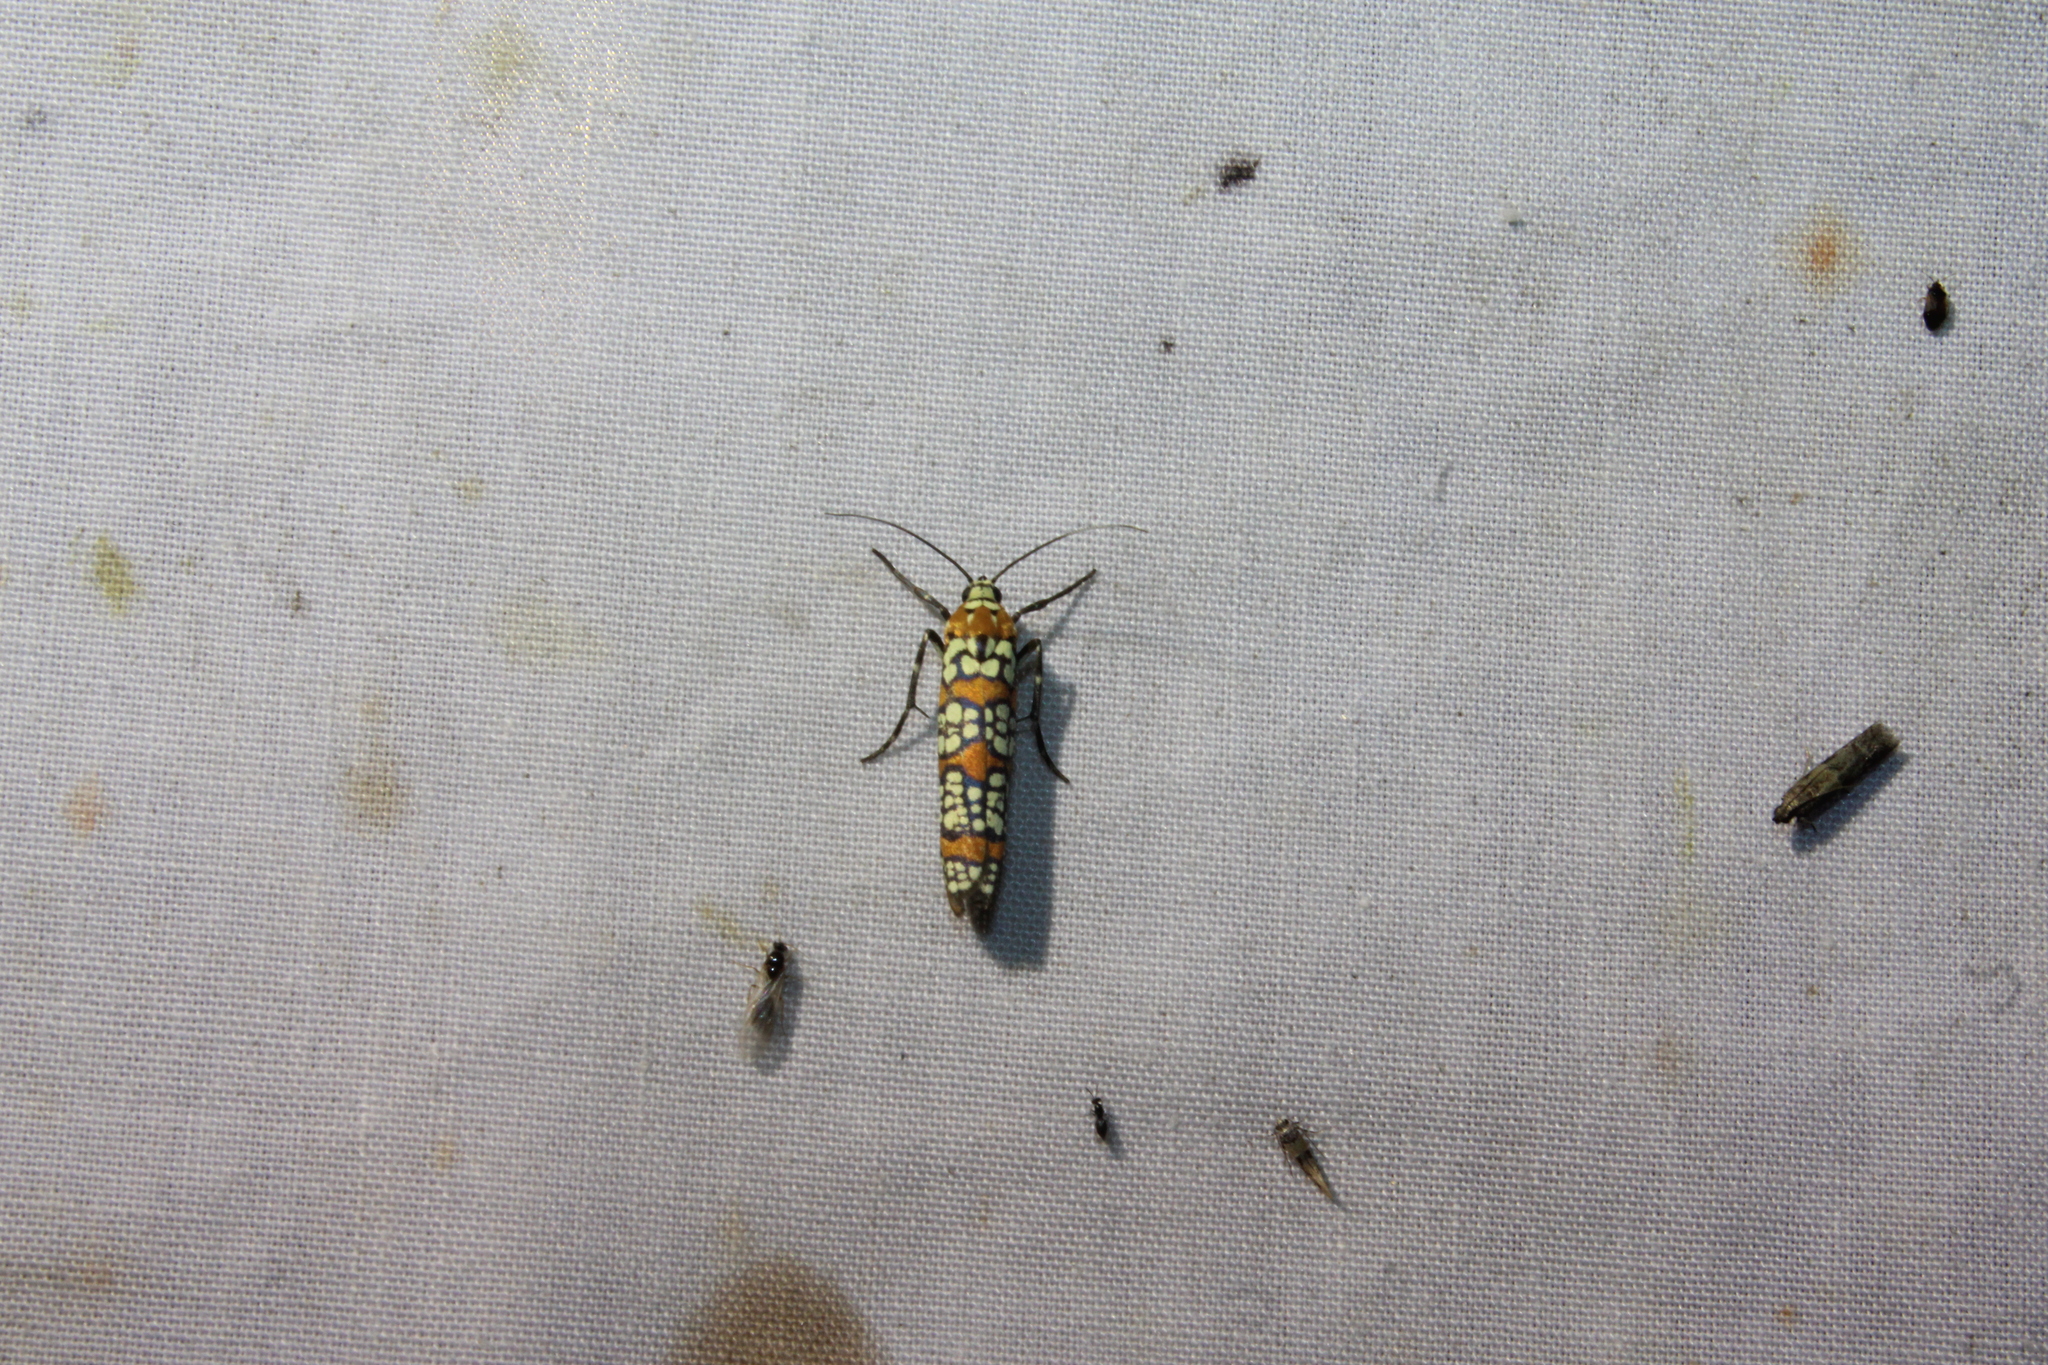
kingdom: Animalia
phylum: Arthropoda
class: Insecta
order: Lepidoptera
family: Attevidae
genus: Atteva
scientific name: Atteva punctella
